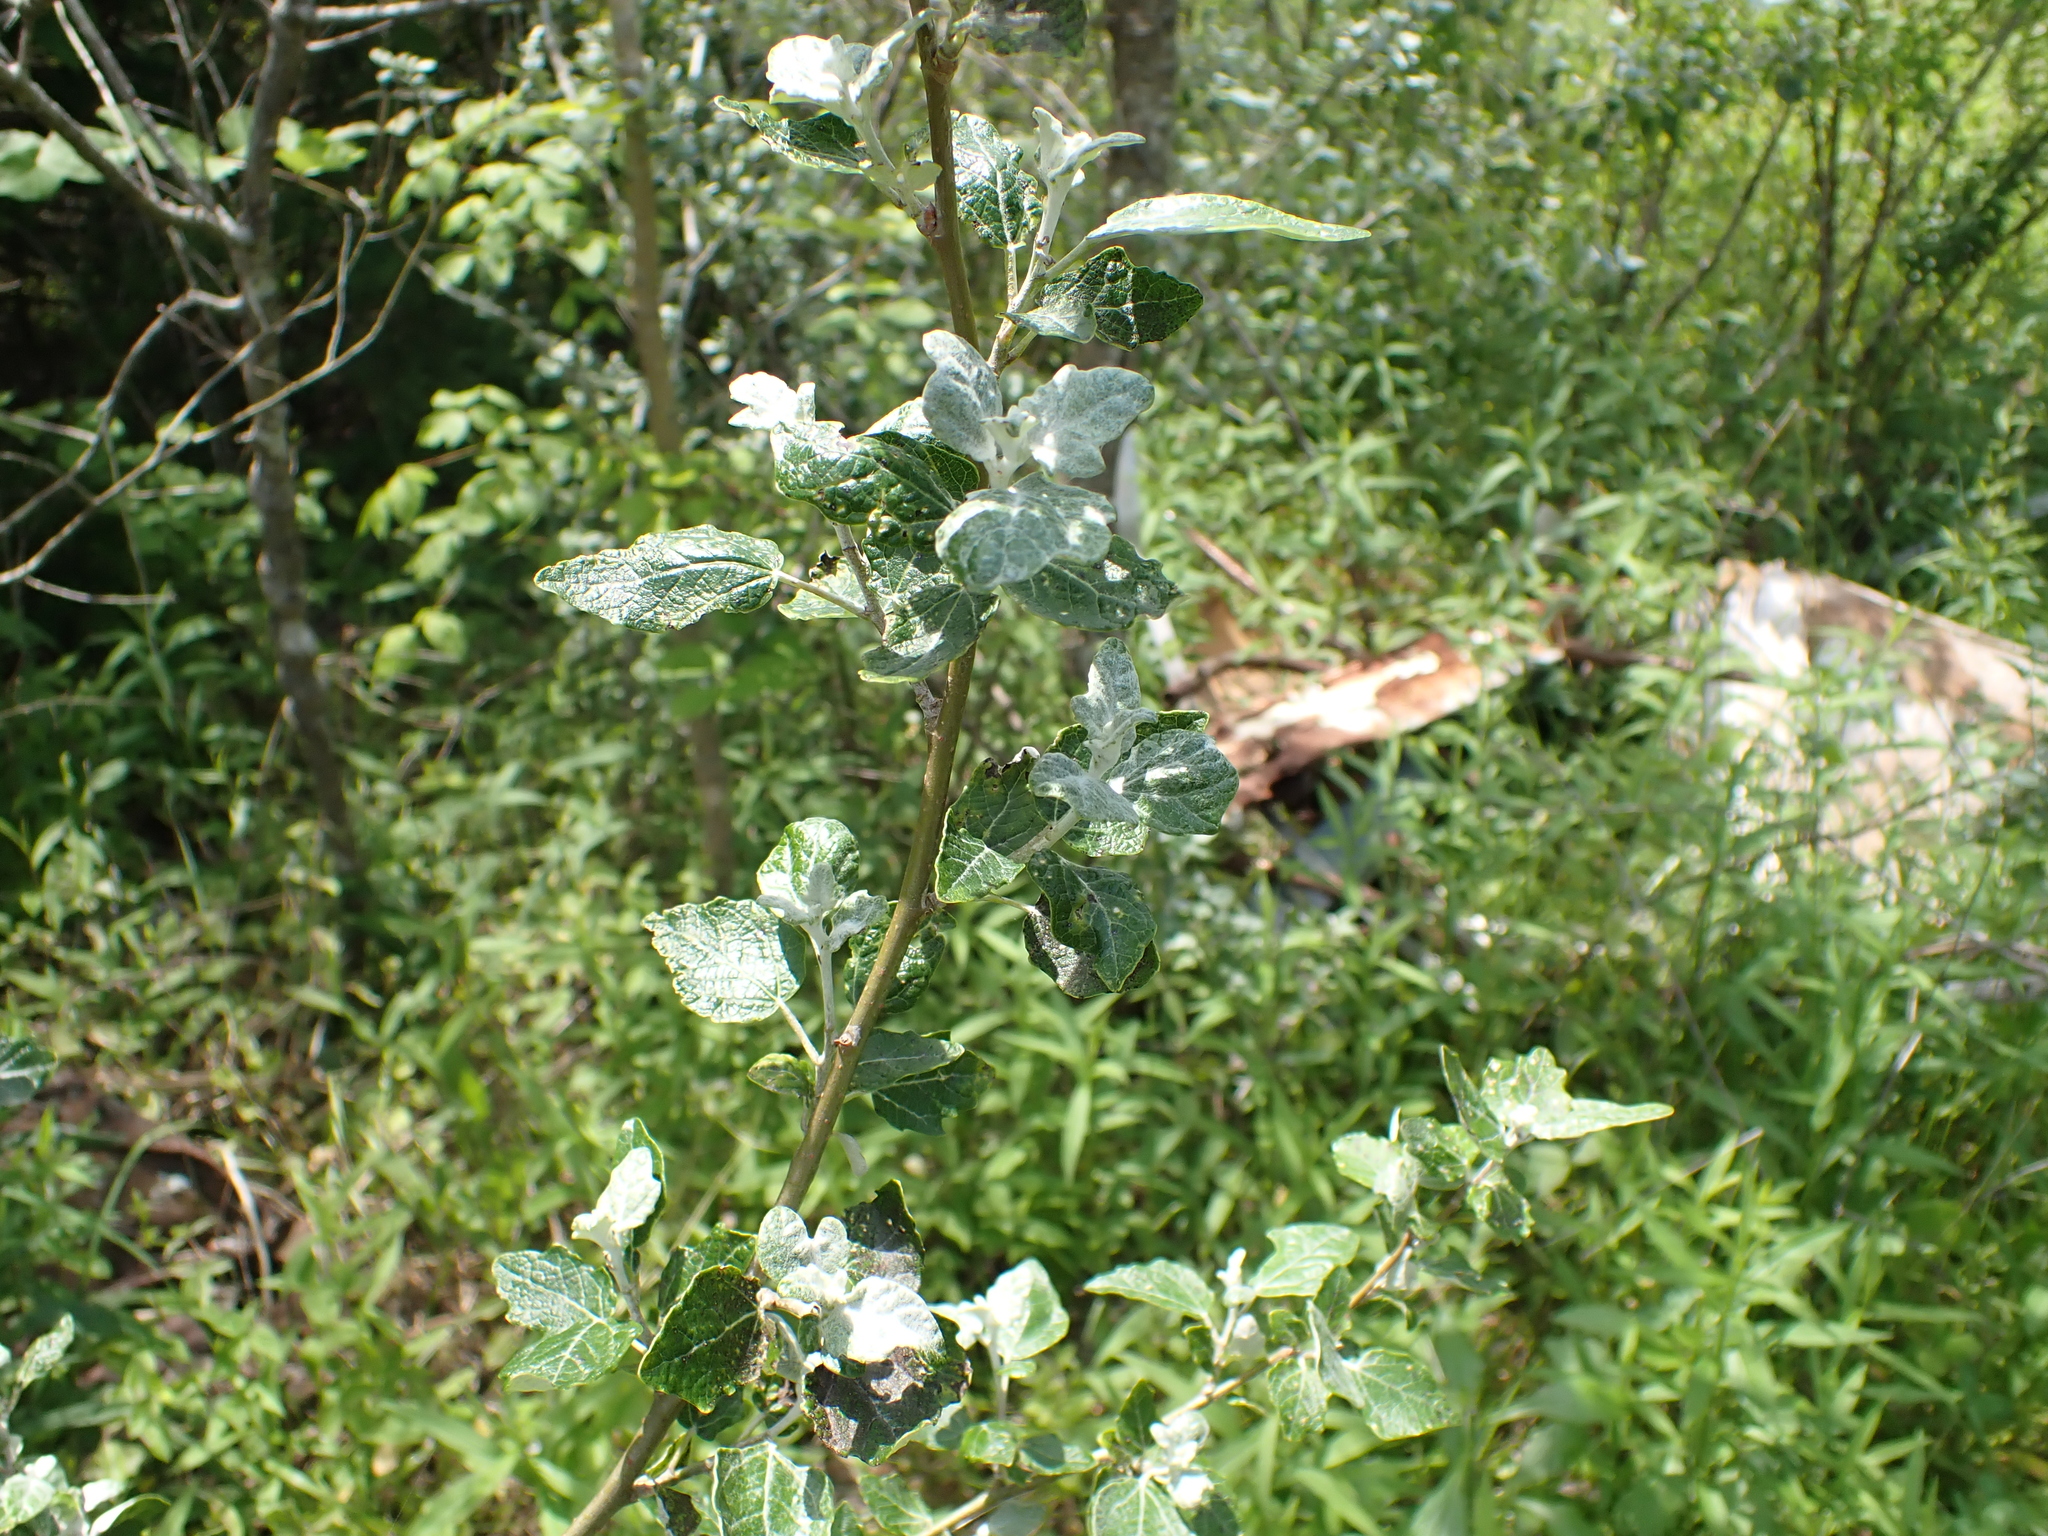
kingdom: Plantae
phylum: Tracheophyta
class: Magnoliopsida
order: Malpighiales
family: Salicaceae
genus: Populus
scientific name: Populus alba
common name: White poplar
